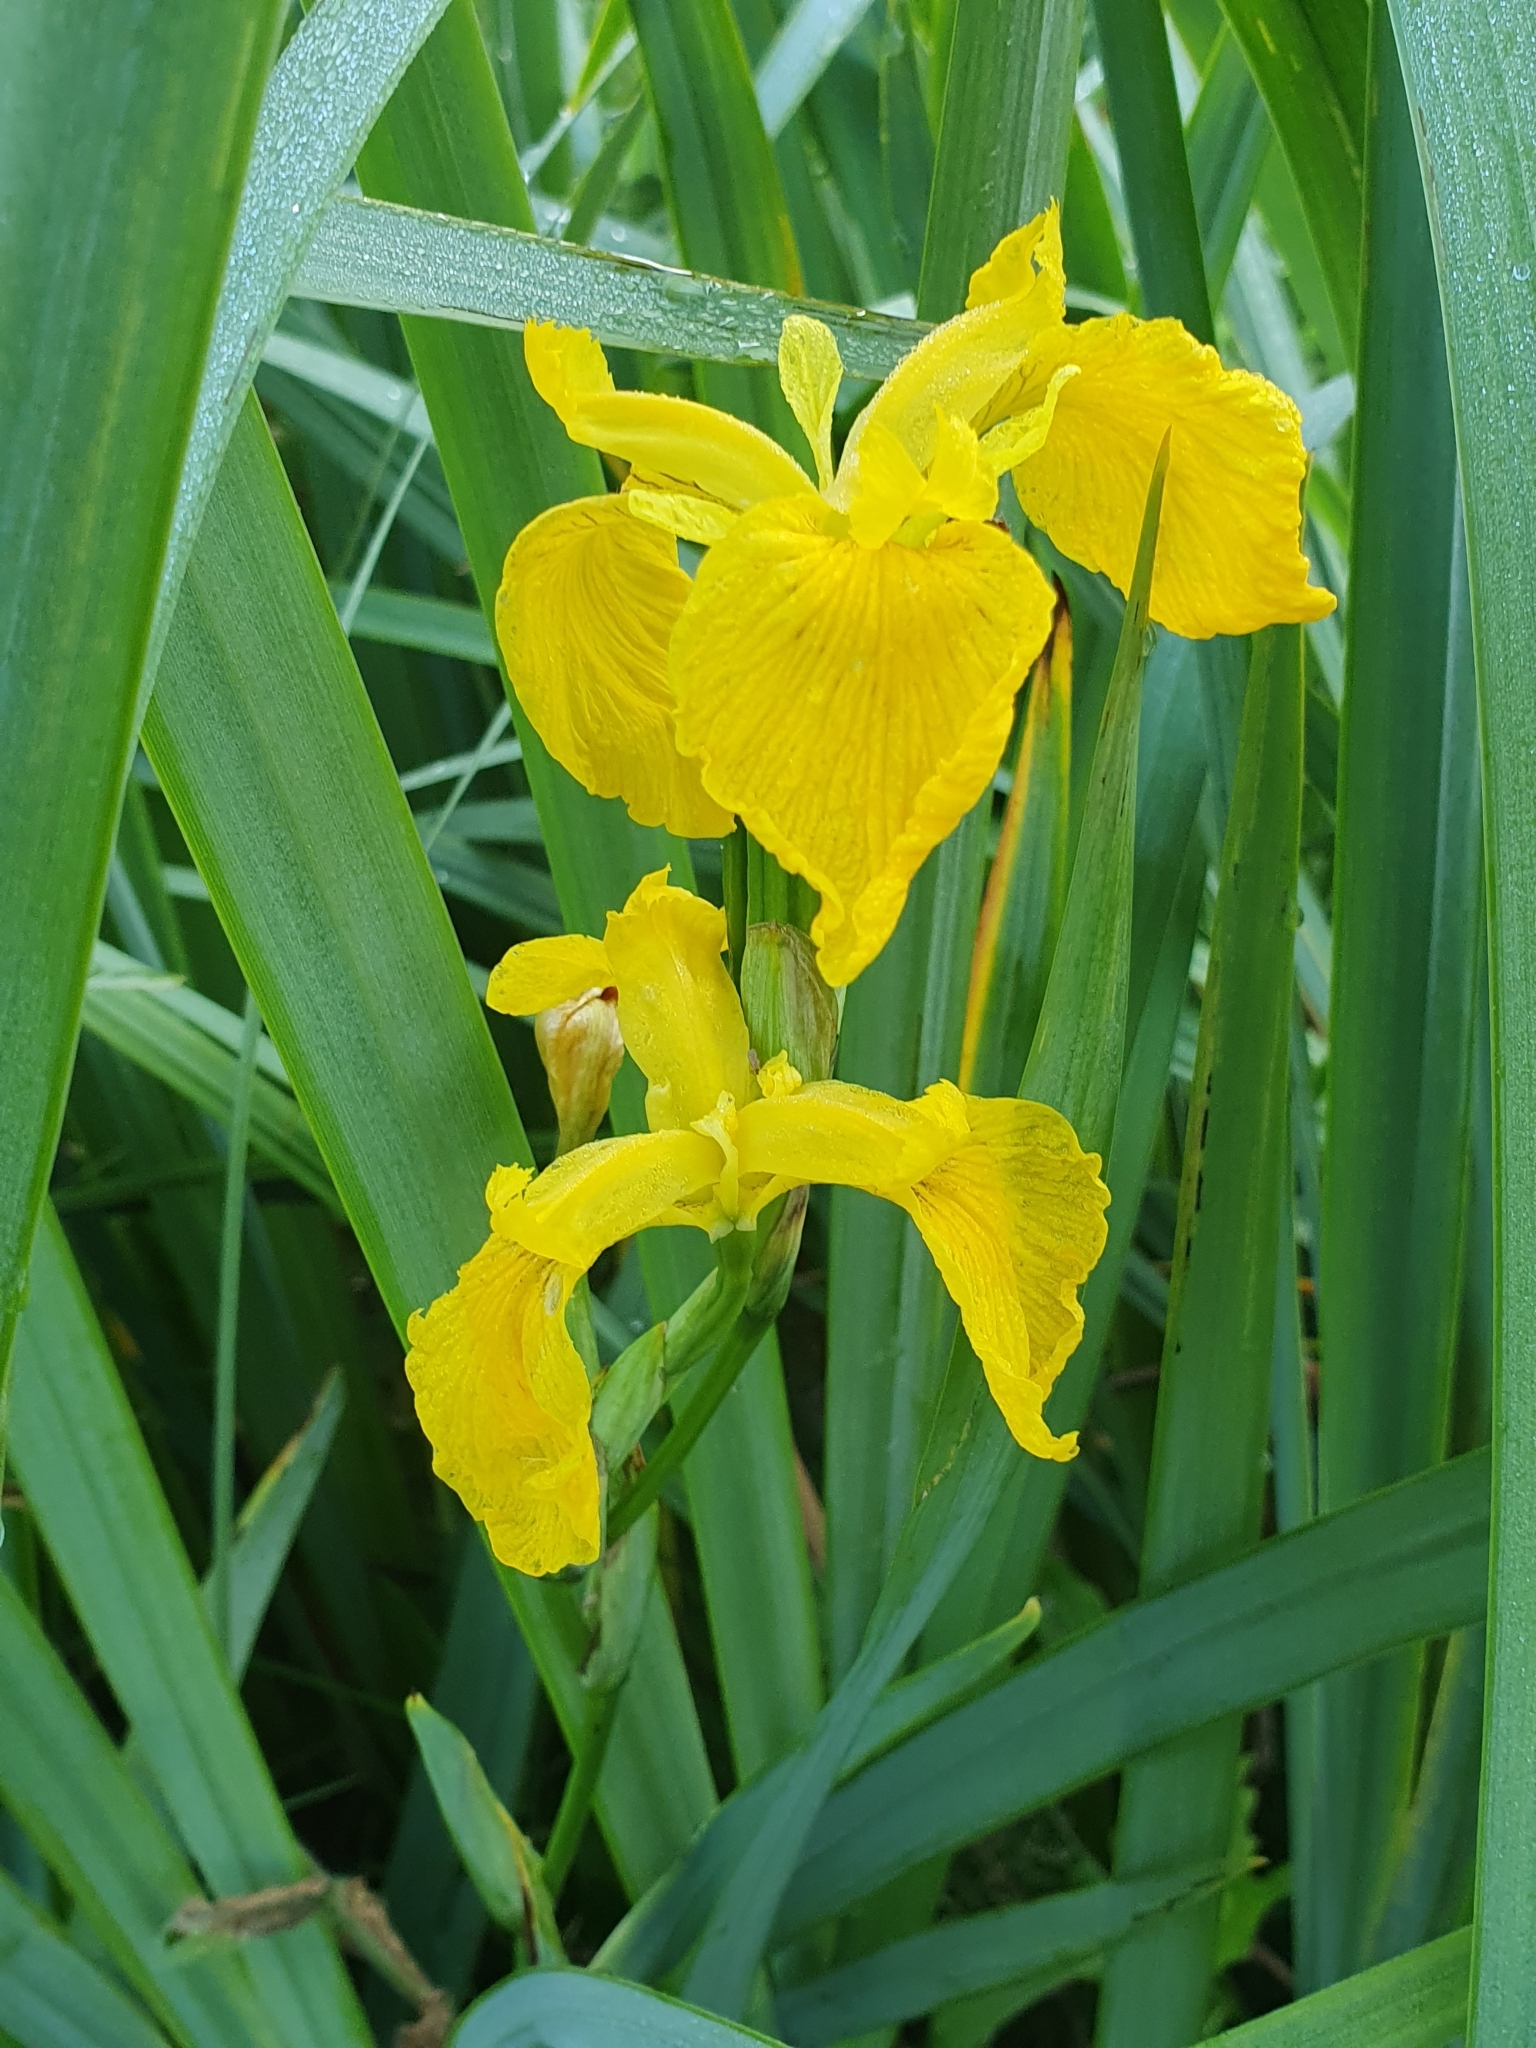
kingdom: Plantae
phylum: Tracheophyta
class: Liliopsida
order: Asparagales
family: Iridaceae
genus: Iris
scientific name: Iris pseudacorus
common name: Yellow flag
